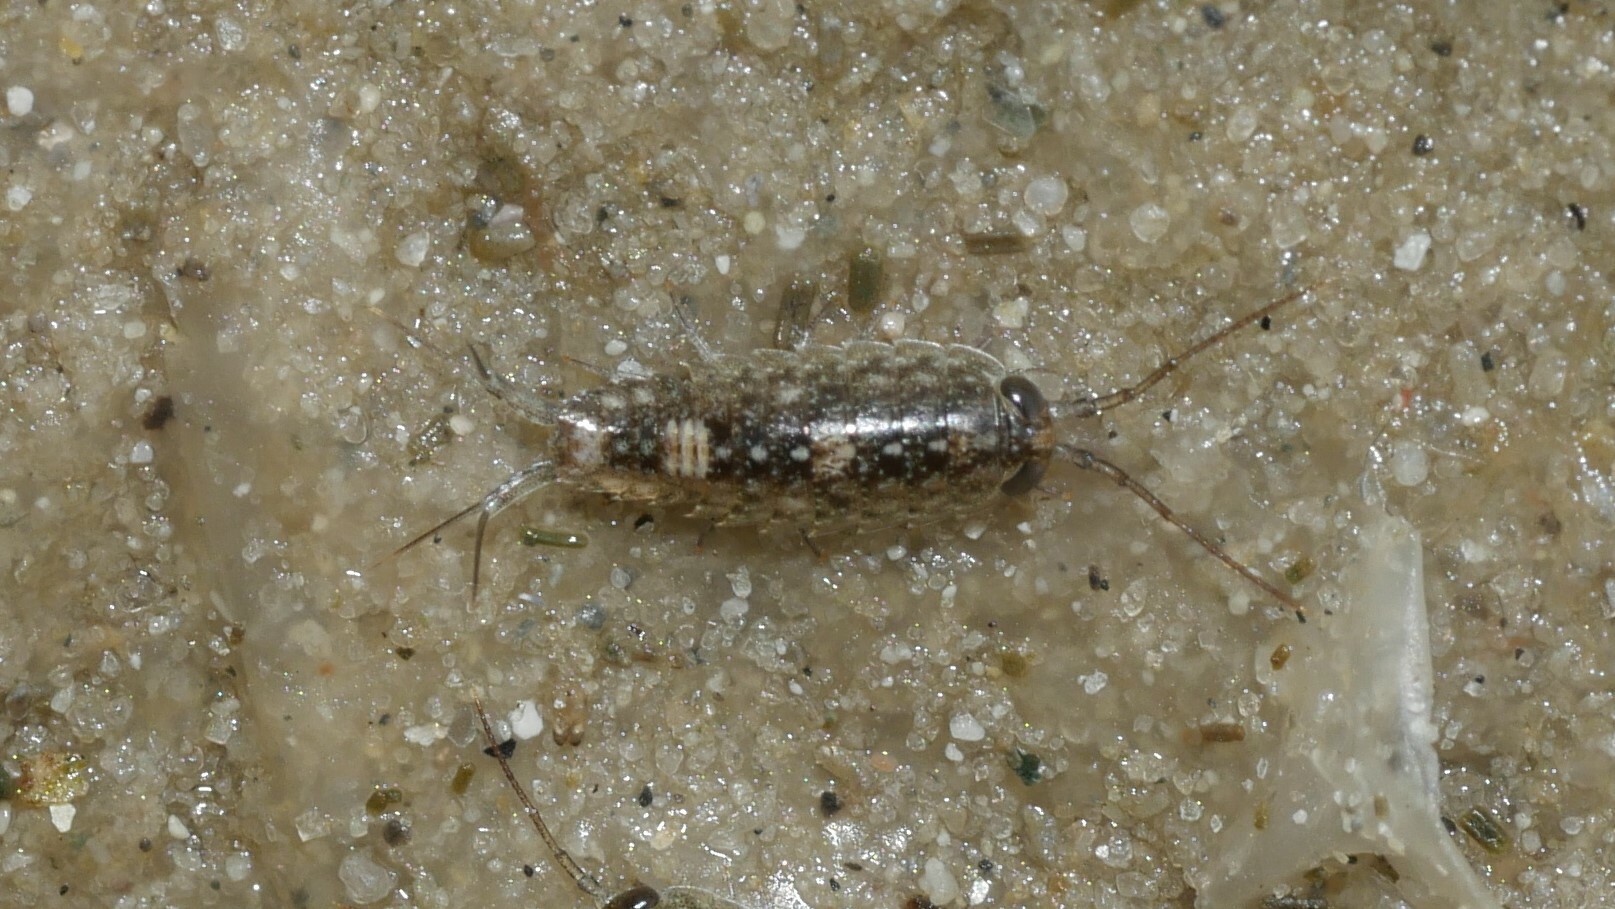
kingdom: Animalia
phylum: Arthropoda
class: Malacostraca
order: Isopoda
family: Ligiidae
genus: Ligia
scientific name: Ligia exotica
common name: Wharf roach
